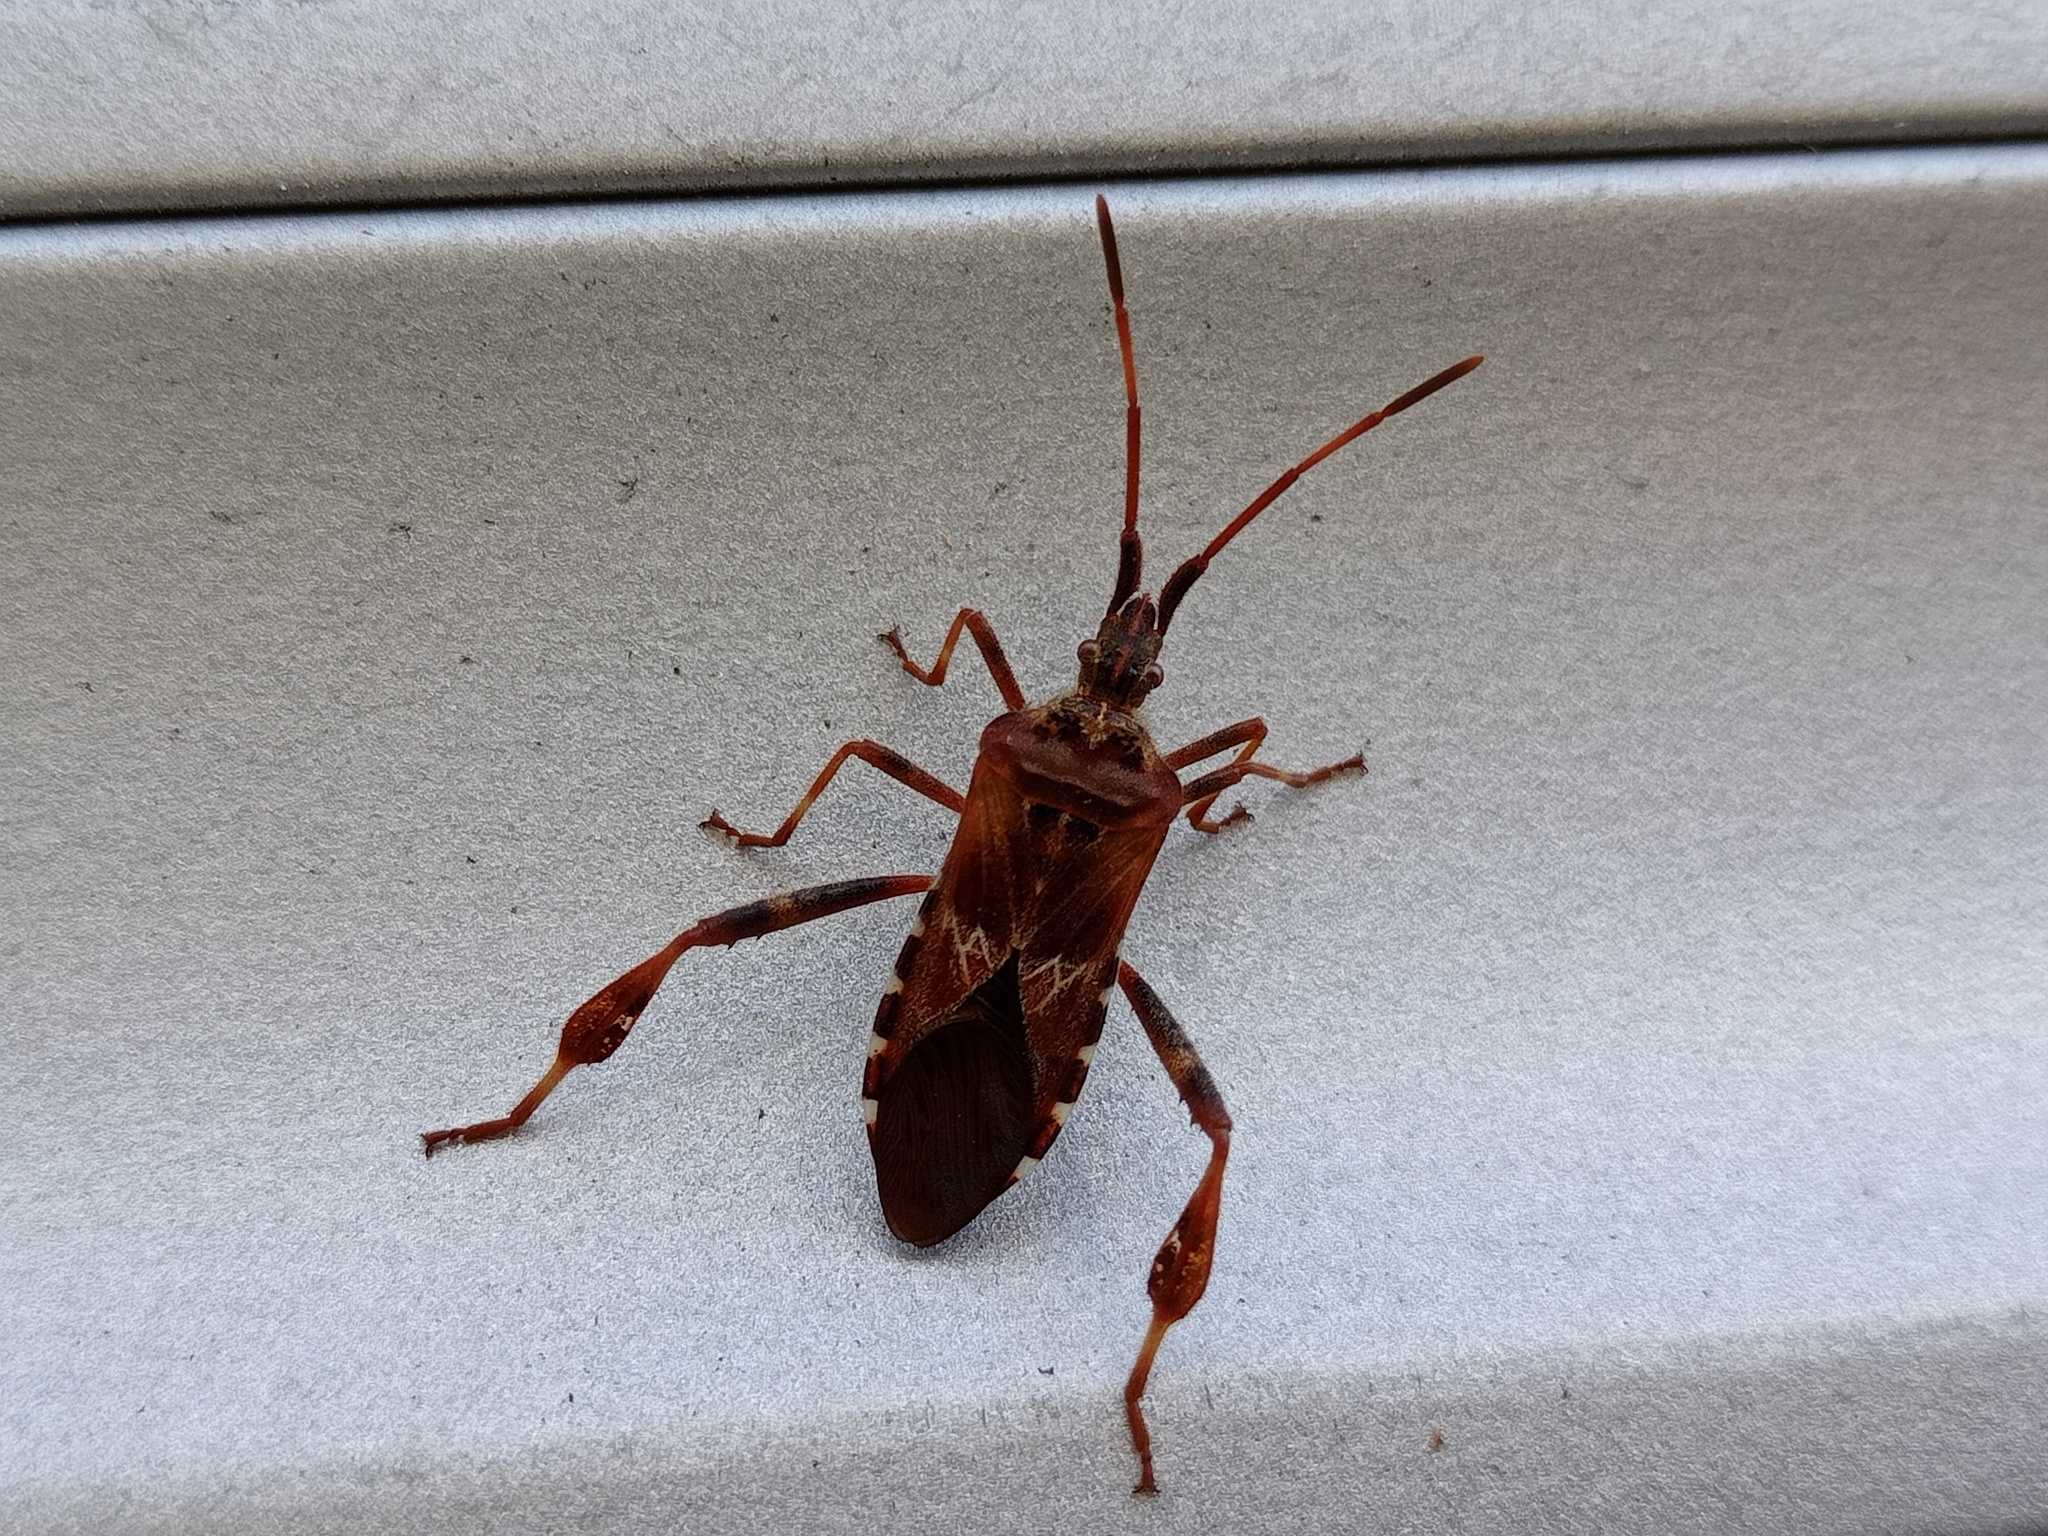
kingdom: Animalia
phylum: Arthropoda
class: Insecta
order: Hemiptera
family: Coreidae
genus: Leptoglossus
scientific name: Leptoglossus occidentalis
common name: Western conifer-seed bug
